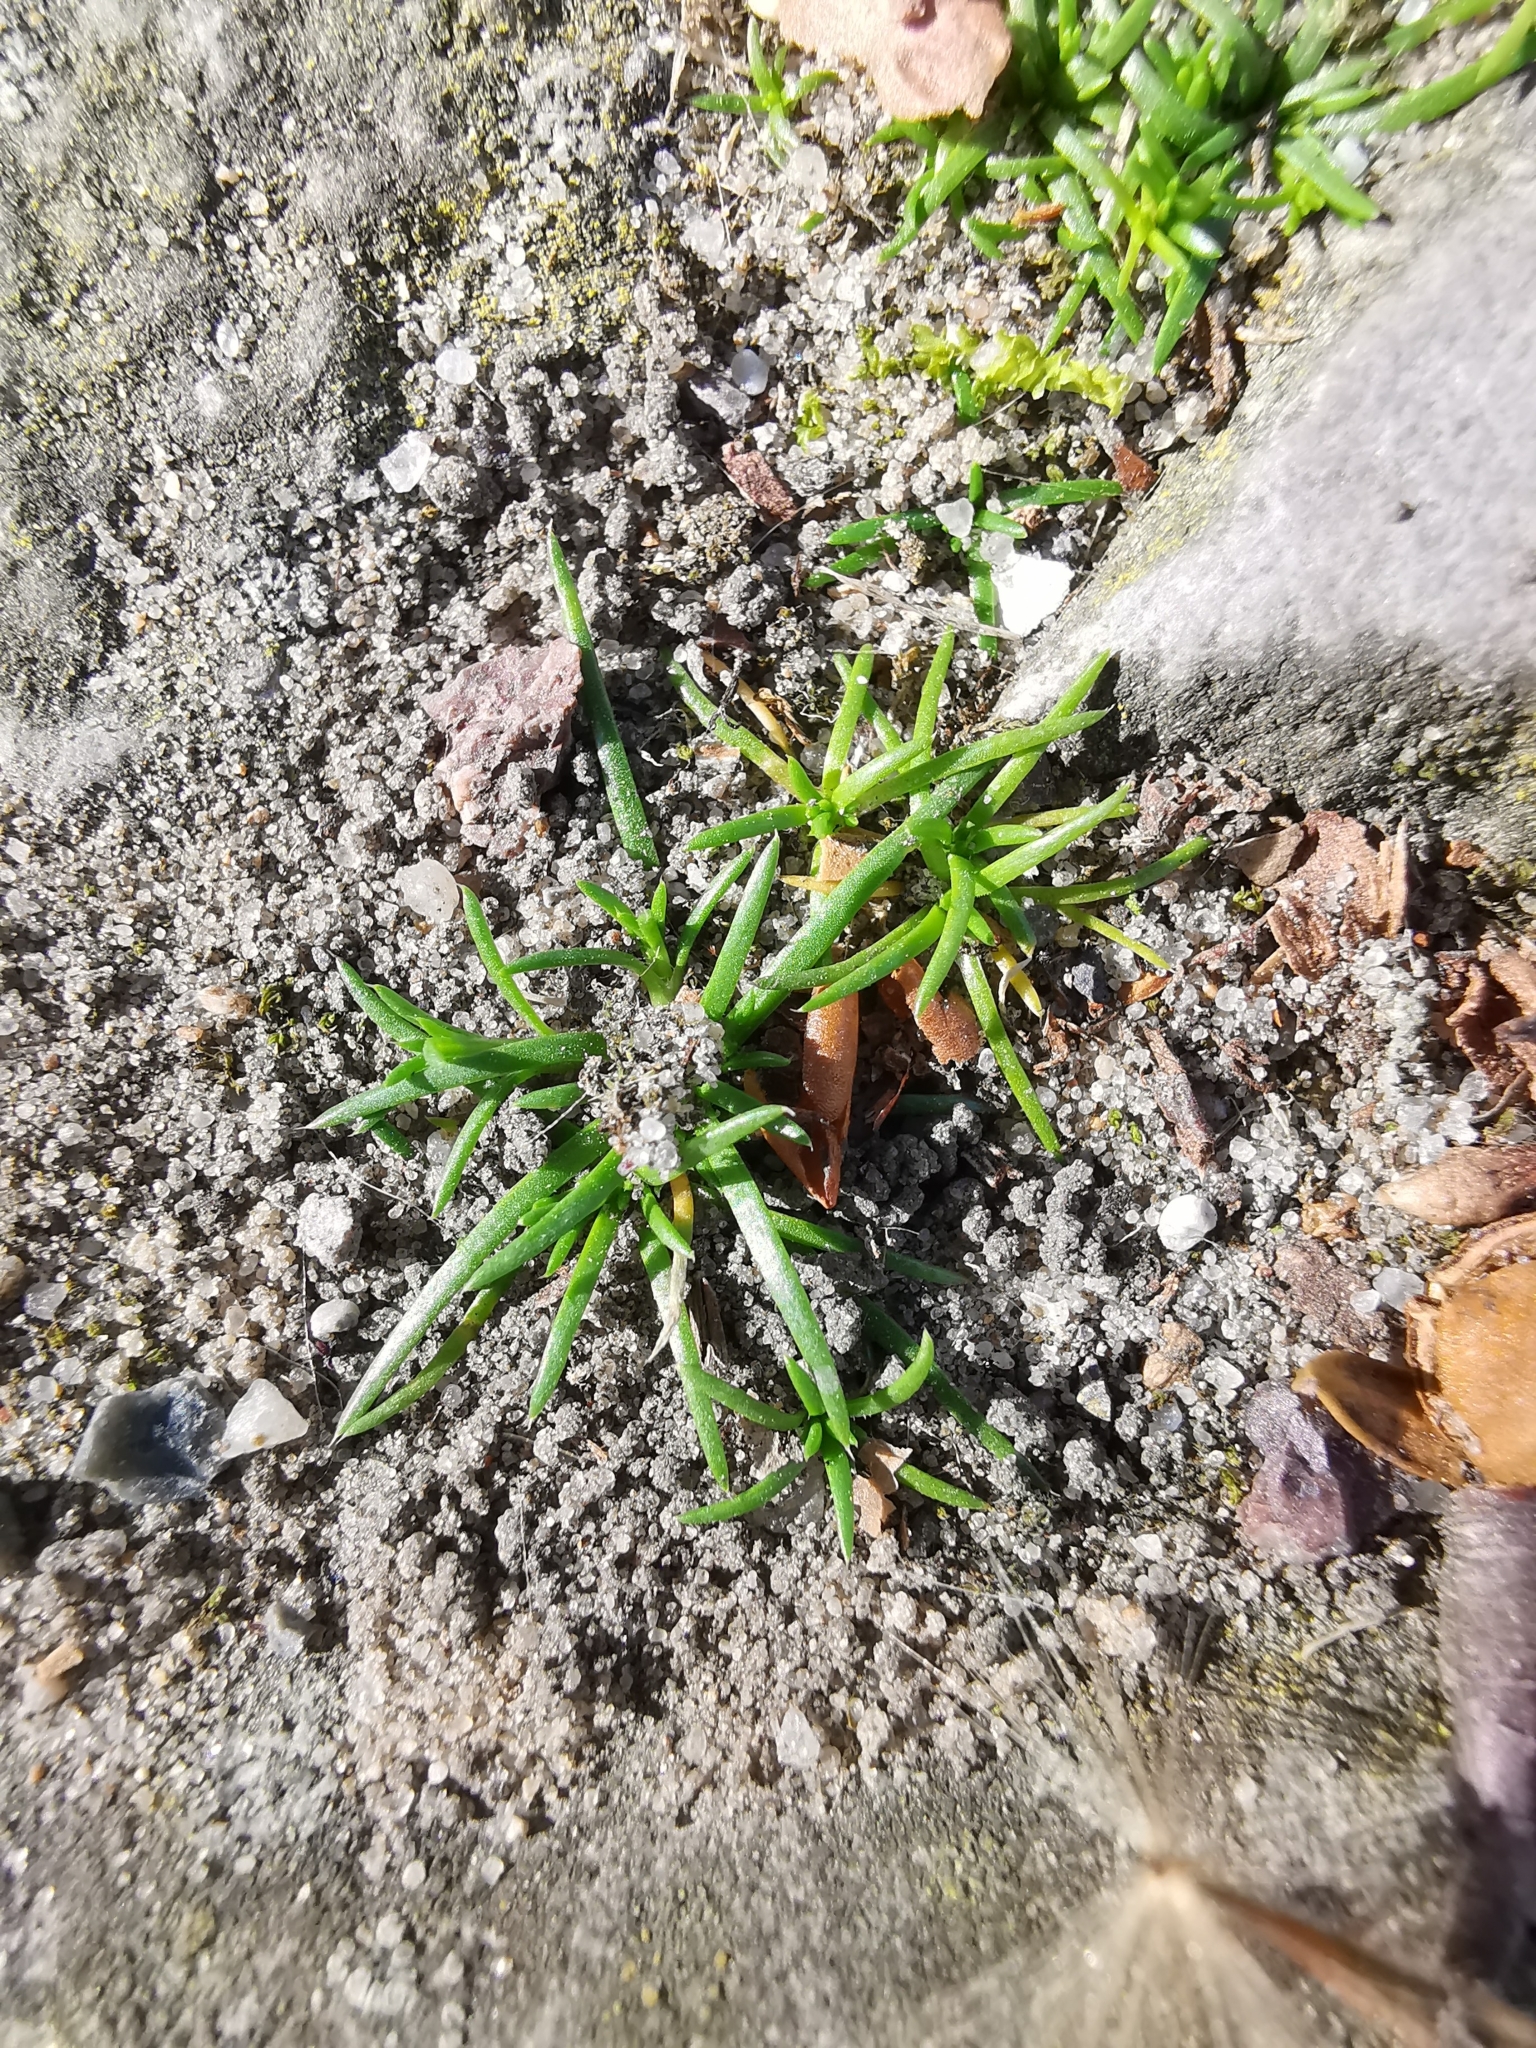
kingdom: Plantae
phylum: Tracheophyta
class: Magnoliopsida
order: Caryophyllales
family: Caryophyllaceae
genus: Sagina
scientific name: Sagina procumbens
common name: Procumbent pearlwort
